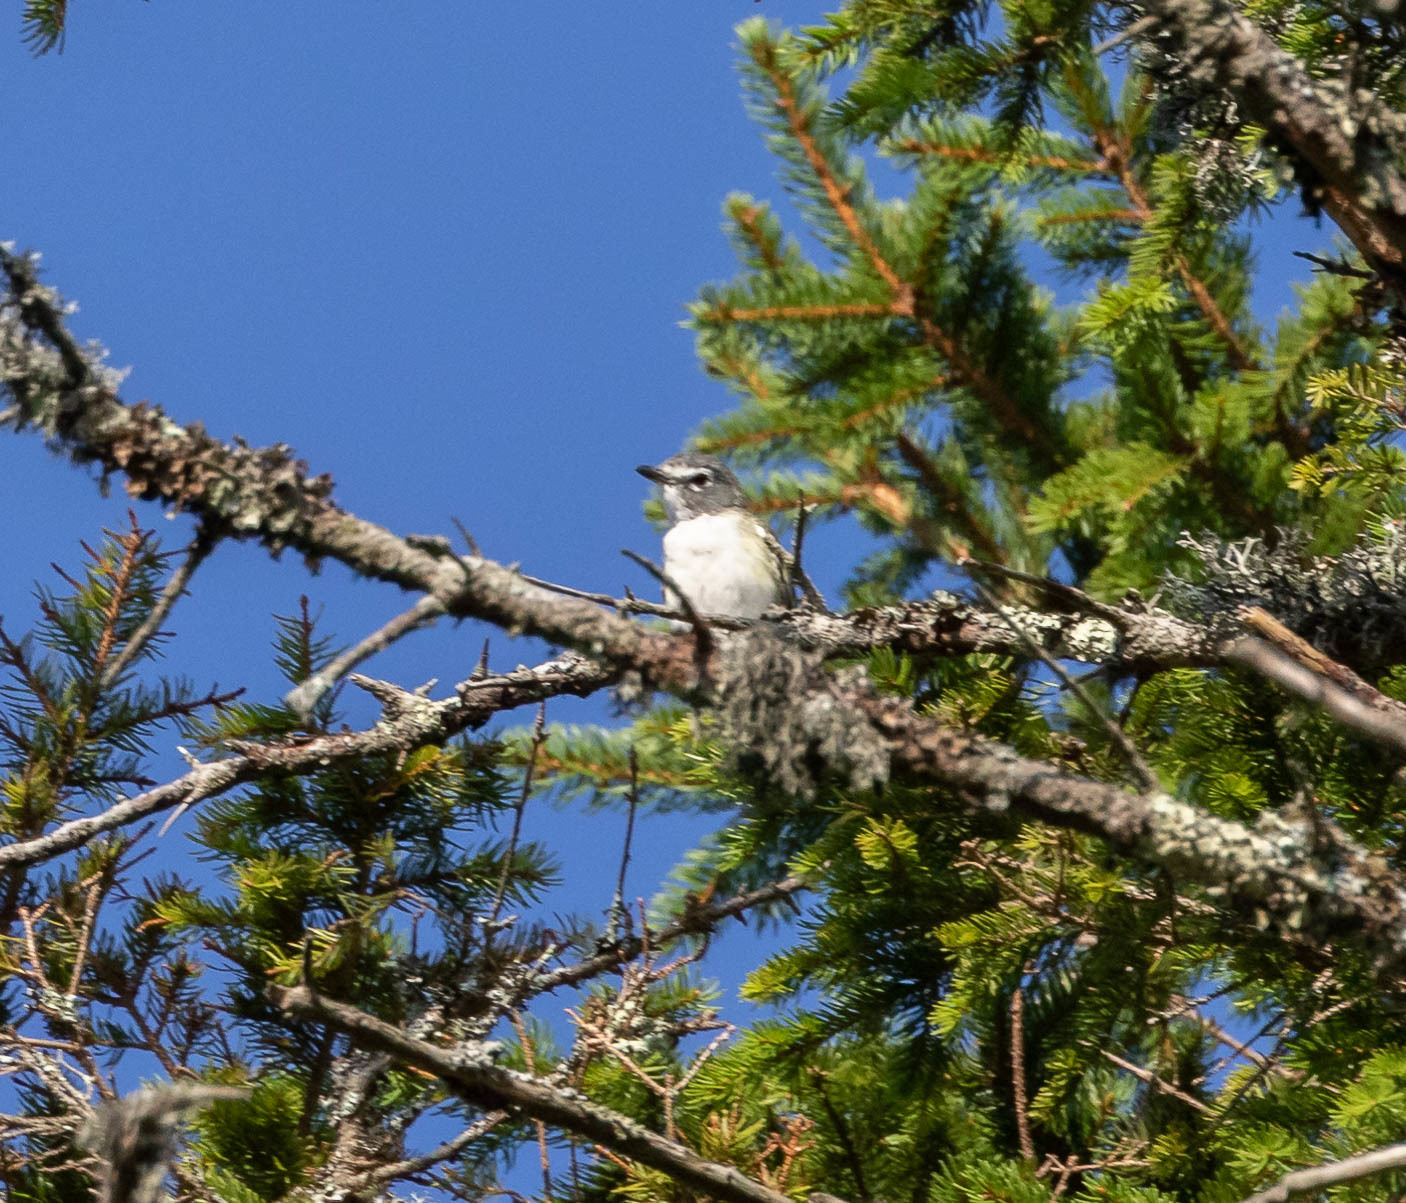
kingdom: Animalia
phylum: Chordata
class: Aves
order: Passeriformes
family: Vireonidae
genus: Vireo
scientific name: Vireo solitarius
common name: Blue-headed vireo
